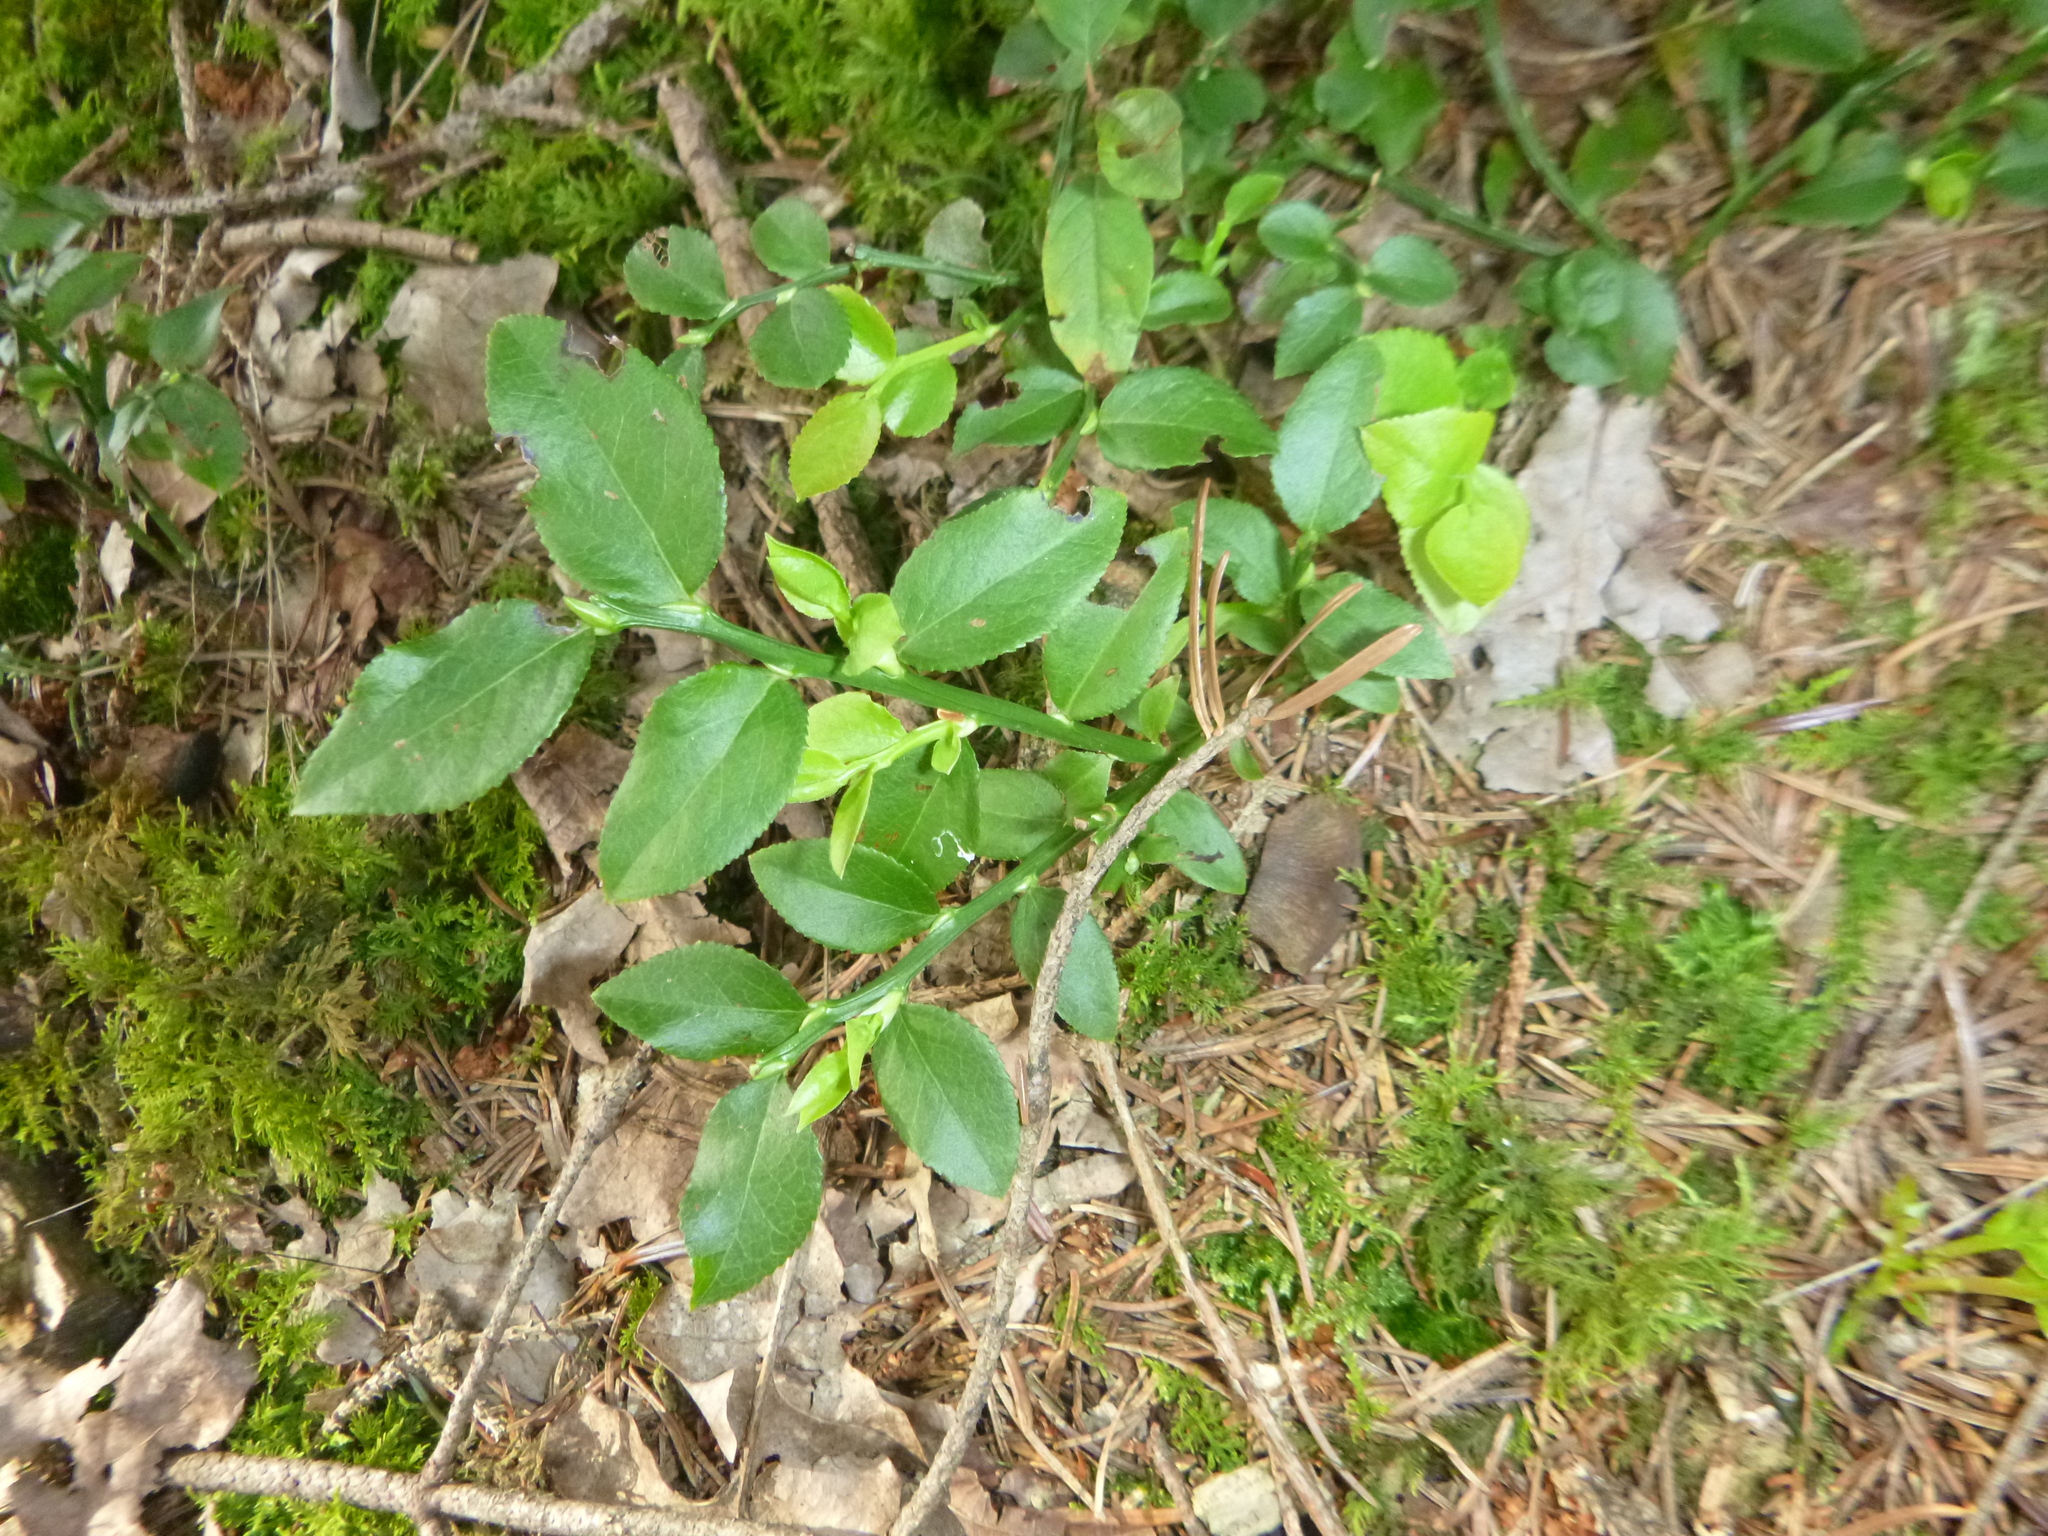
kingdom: Plantae
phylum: Tracheophyta
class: Magnoliopsida
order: Ericales
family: Ericaceae
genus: Vaccinium
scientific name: Vaccinium myrtillus
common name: Bilberry
